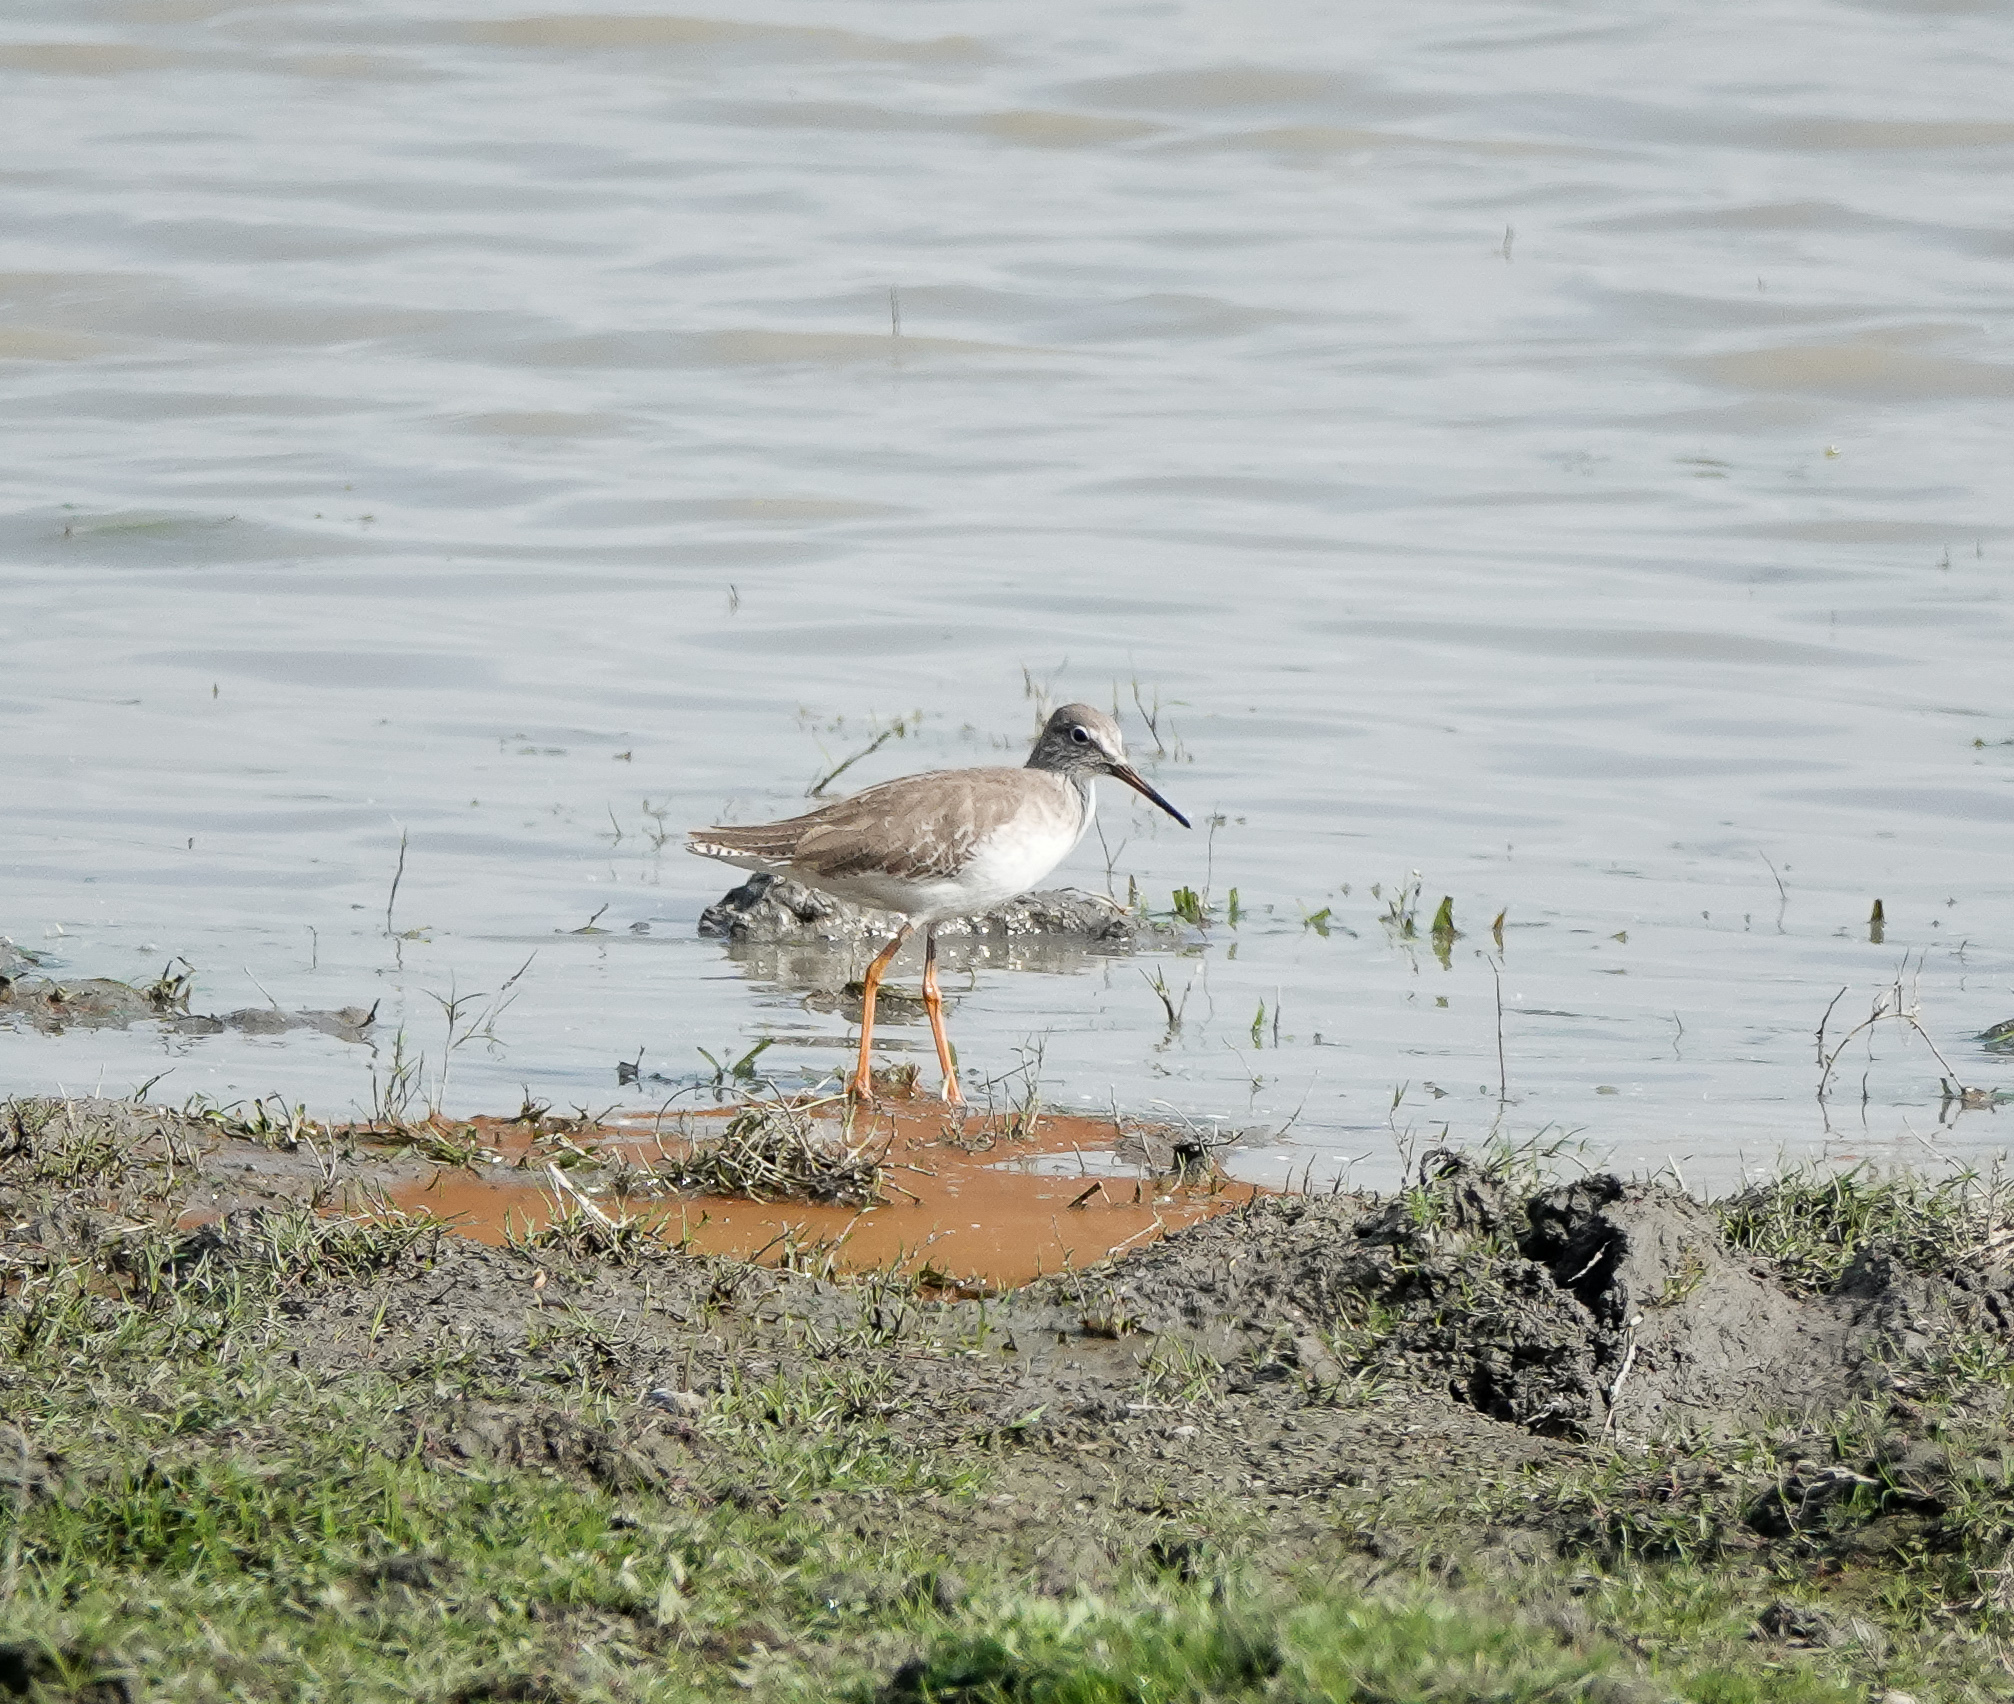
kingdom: Animalia
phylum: Chordata
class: Aves
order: Charadriiformes
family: Scolopacidae
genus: Tringa
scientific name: Tringa totanus
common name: Common redshank
